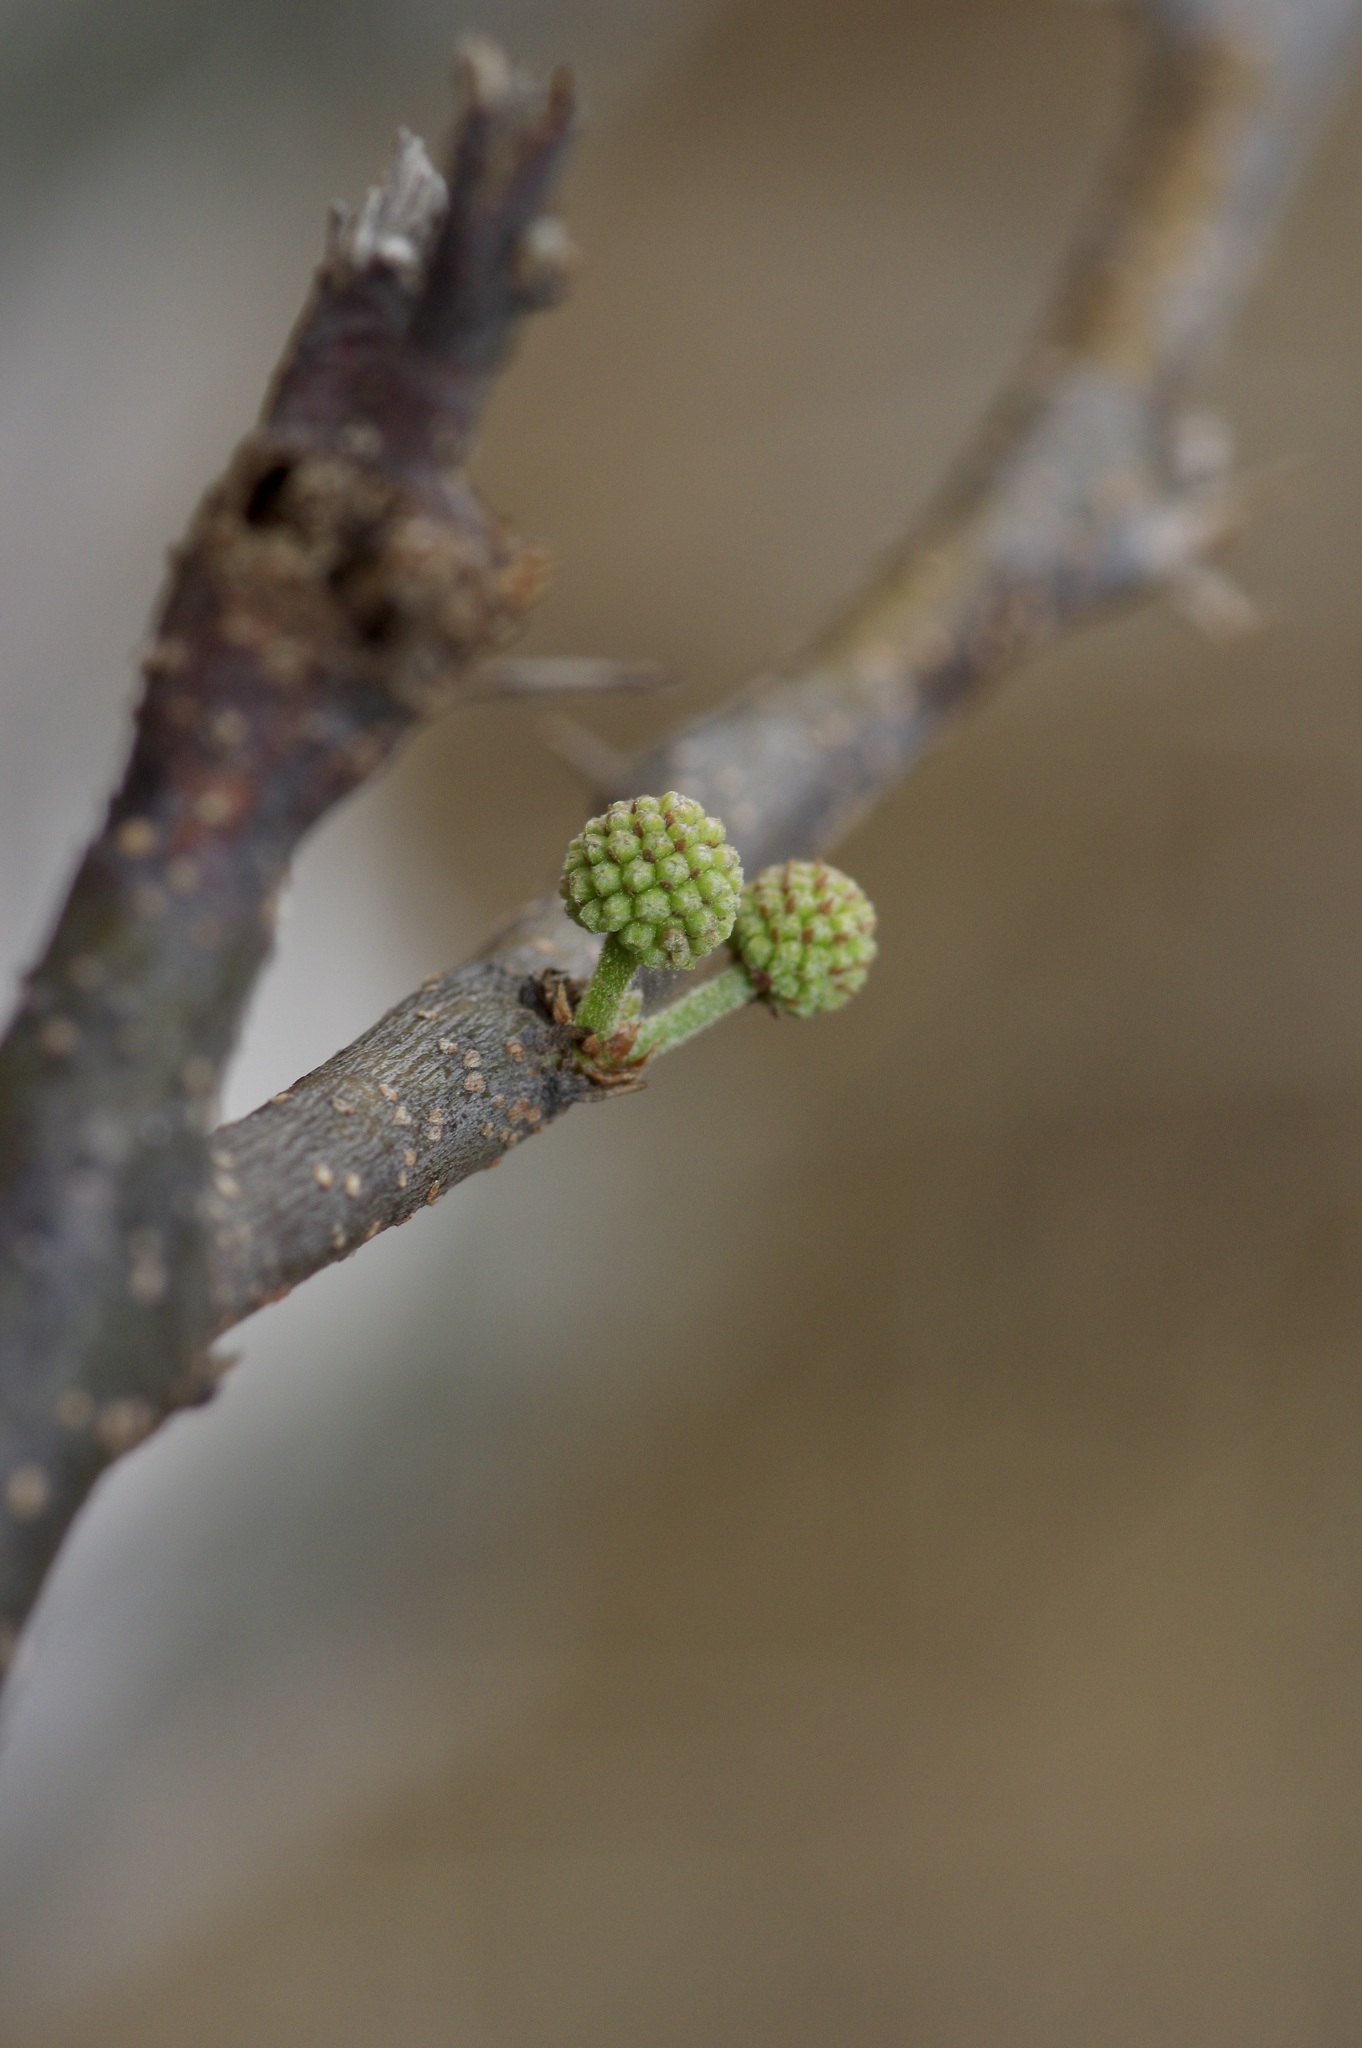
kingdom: Plantae
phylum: Tracheophyta
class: Magnoliopsida
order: Fabales
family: Fabaceae
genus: Vachellia
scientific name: Vachellia farnesiana
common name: Sweet acacia
